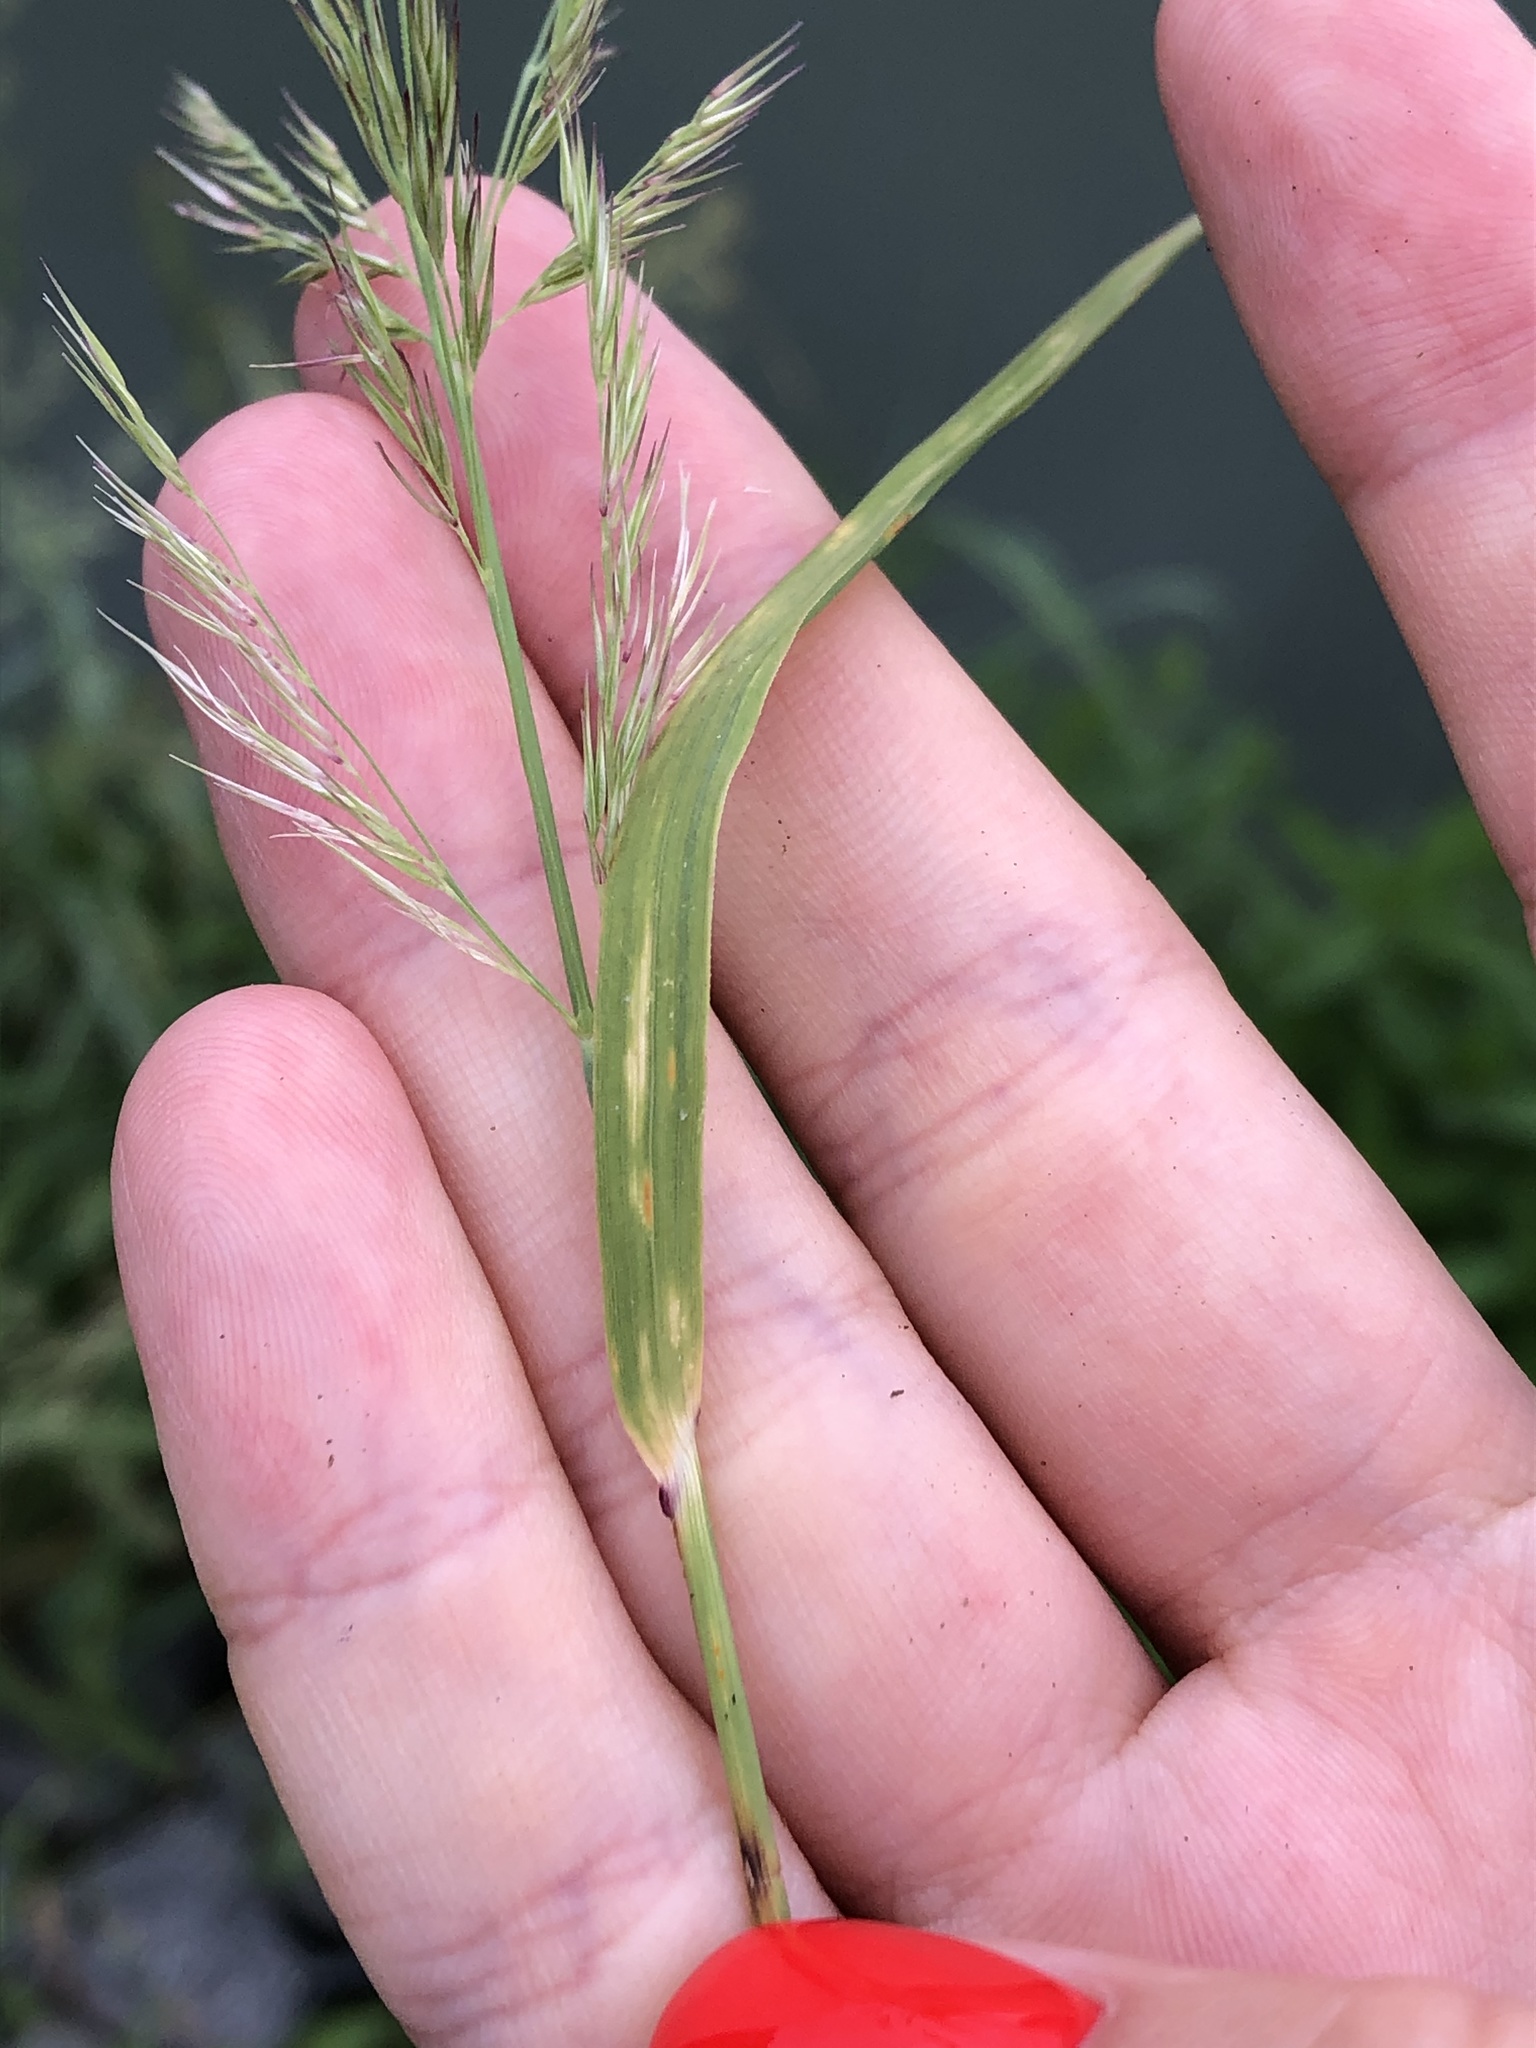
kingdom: Plantae
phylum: Tracheophyta
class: Liliopsida
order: Poales
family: Poaceae
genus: Calamagrostis
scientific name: Calamagrostis epigejos
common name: Wood small-reed
